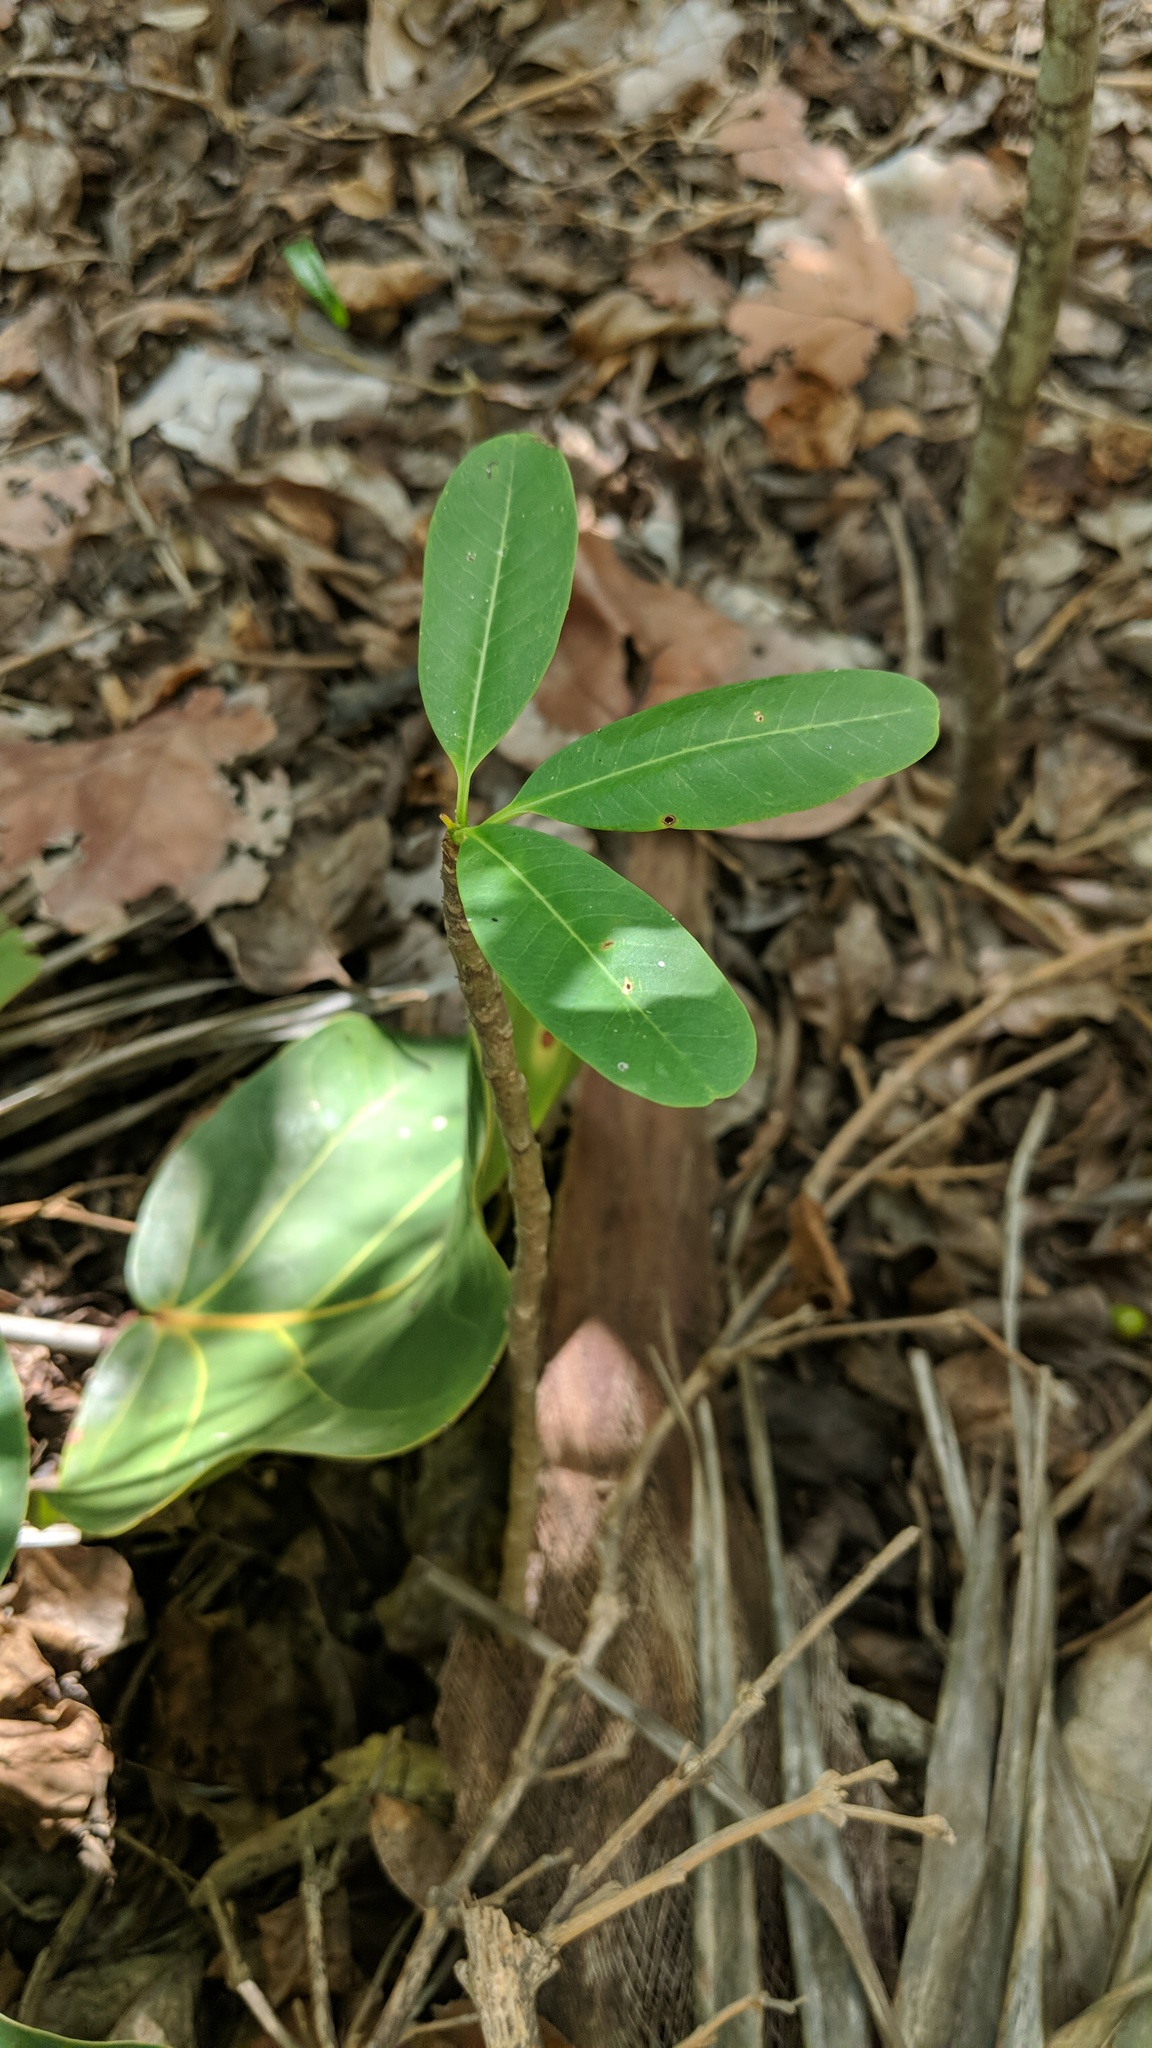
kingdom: Plantae
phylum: Tracheophyta
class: Magnoliopsida
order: Gentianales
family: Apocynaceae
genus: Plumeria
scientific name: Plumeria obtusa
